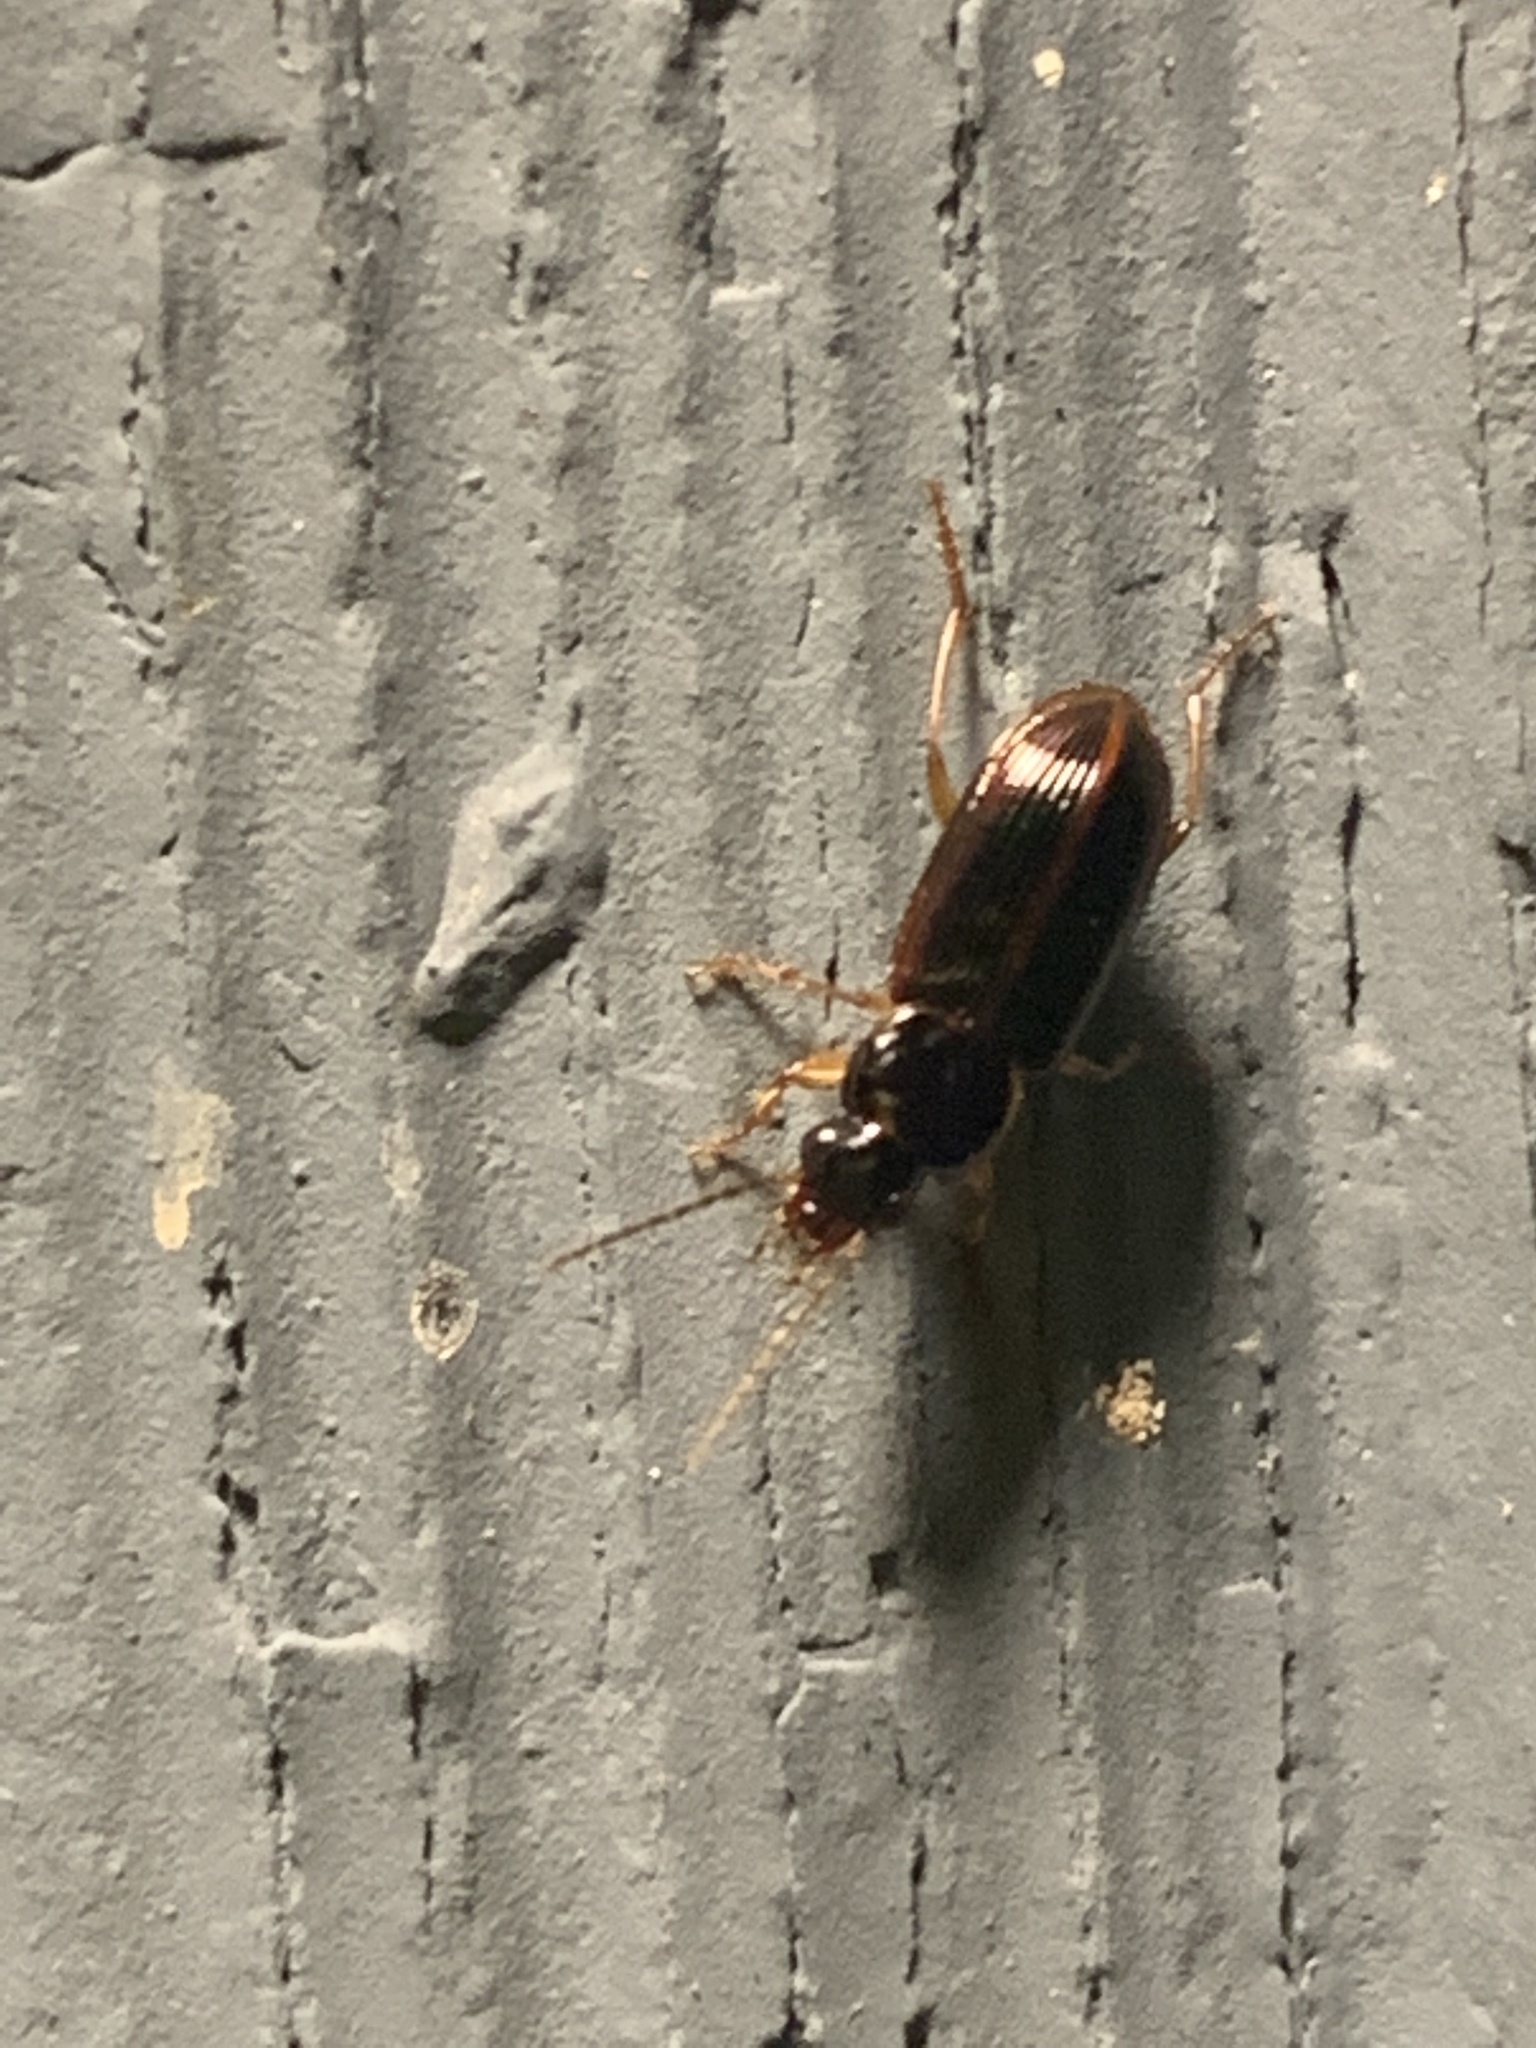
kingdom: Animalia
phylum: Arthropoda
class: Insecta
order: Coleoptera
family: Carabidae
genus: Stenolophus
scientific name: Stenolophus
